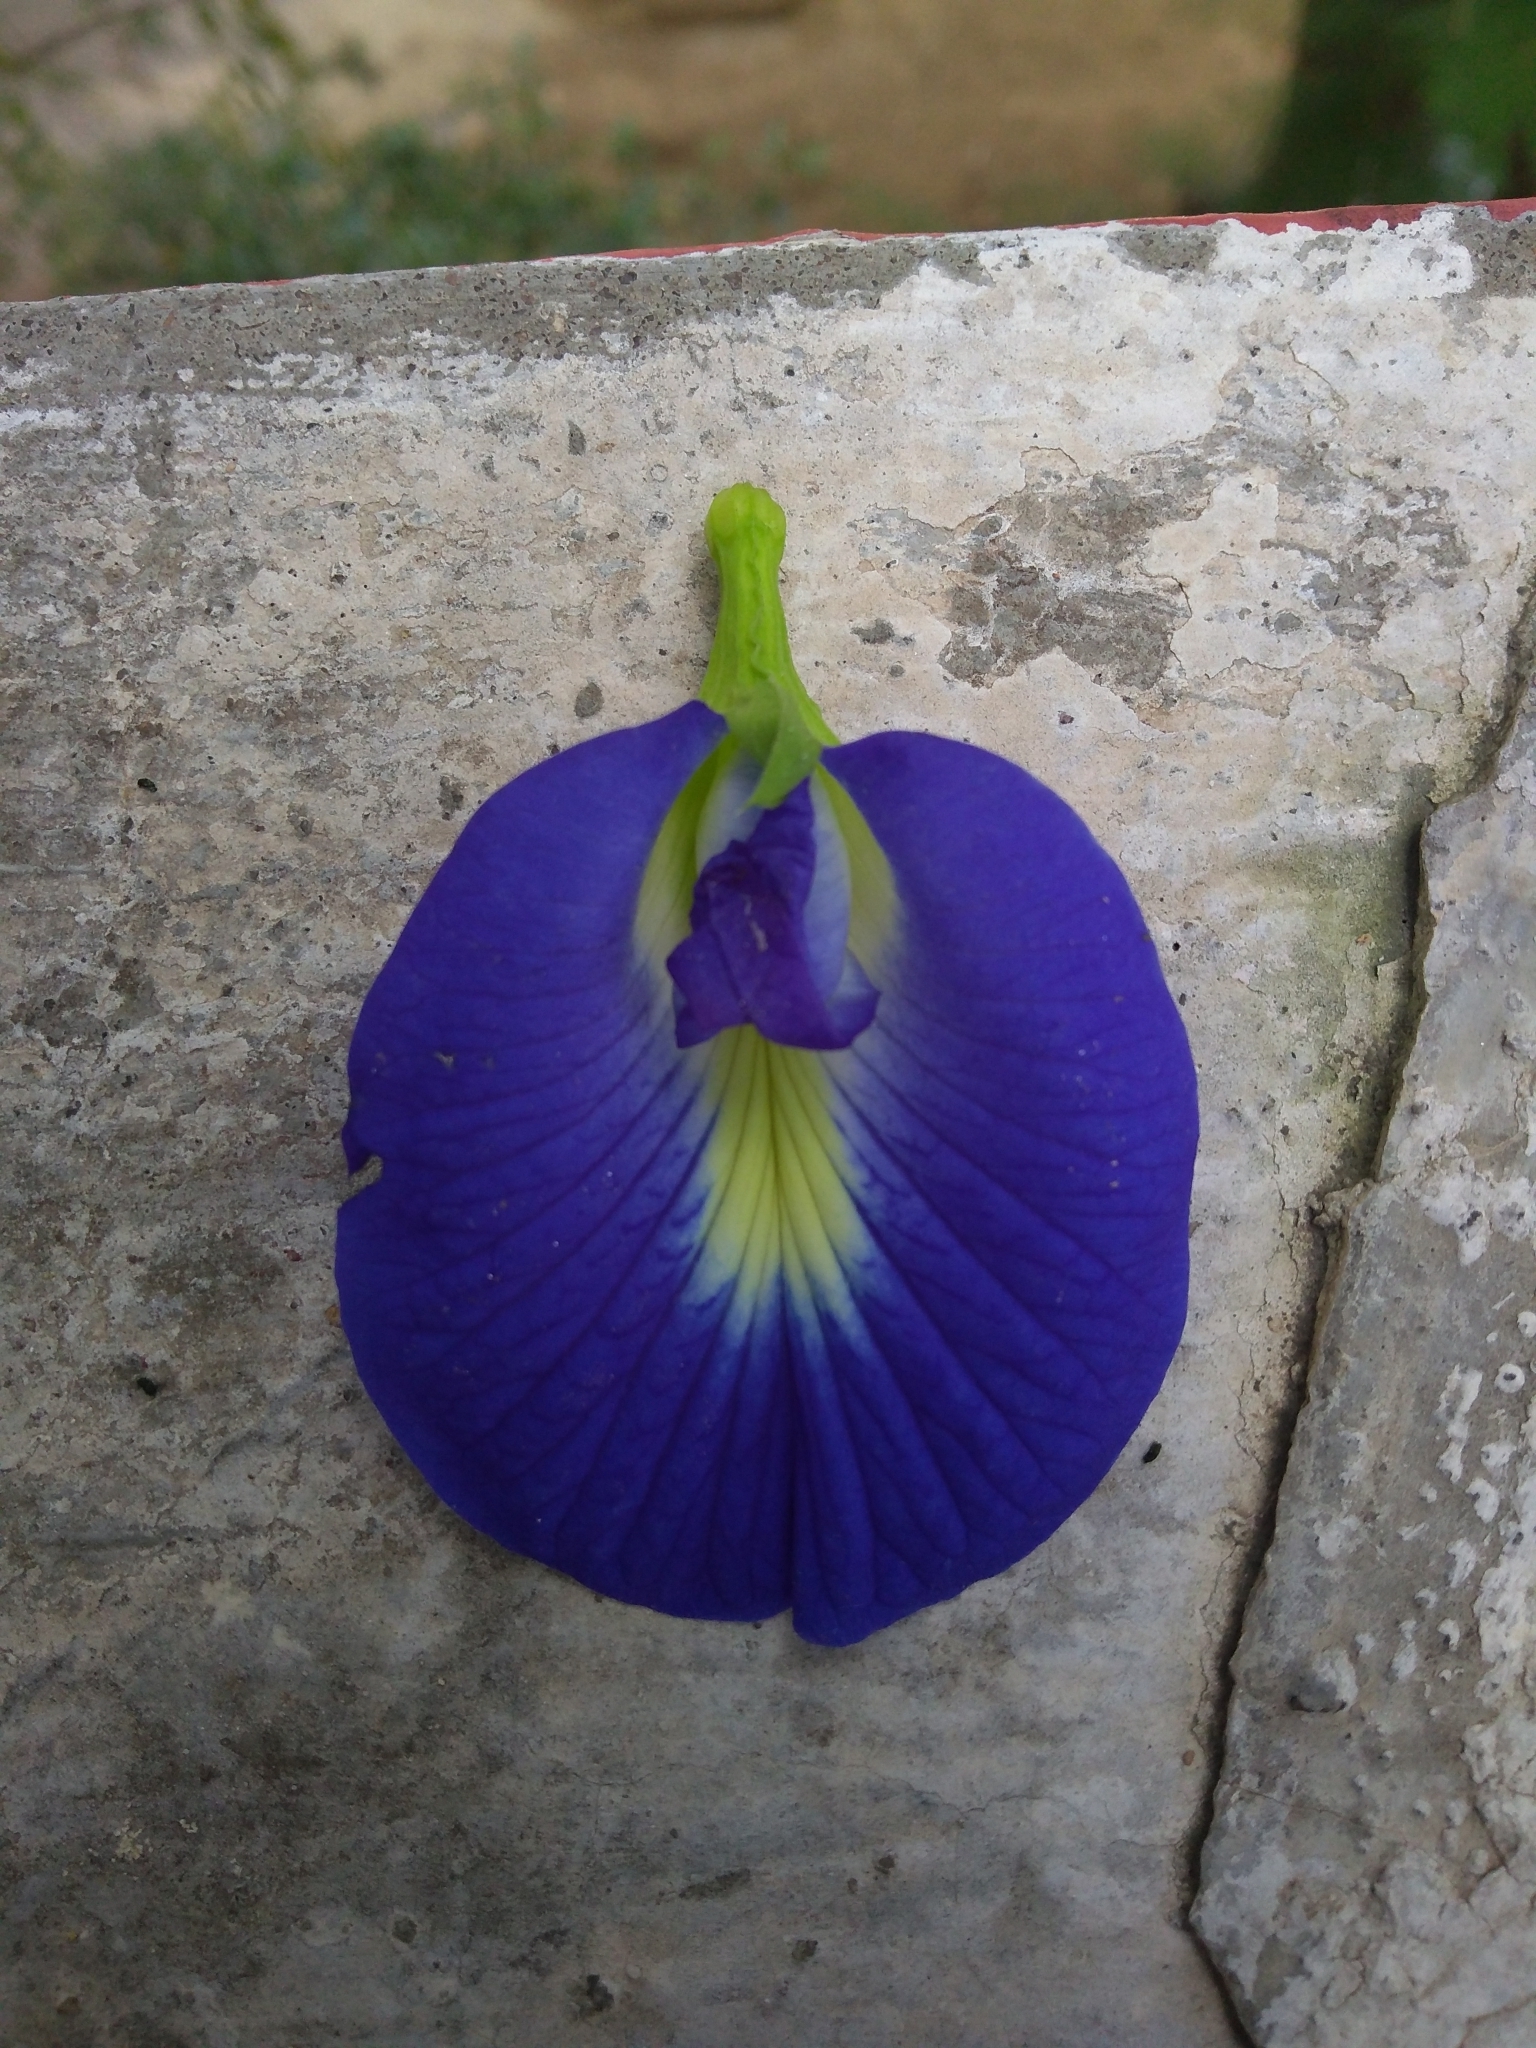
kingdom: Plantae
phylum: Tracheophyta
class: Magnoliopsida
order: Fabales
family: Fabaceae
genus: Clitoria
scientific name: Clitoria ternatea
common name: Asian pigeonwings
